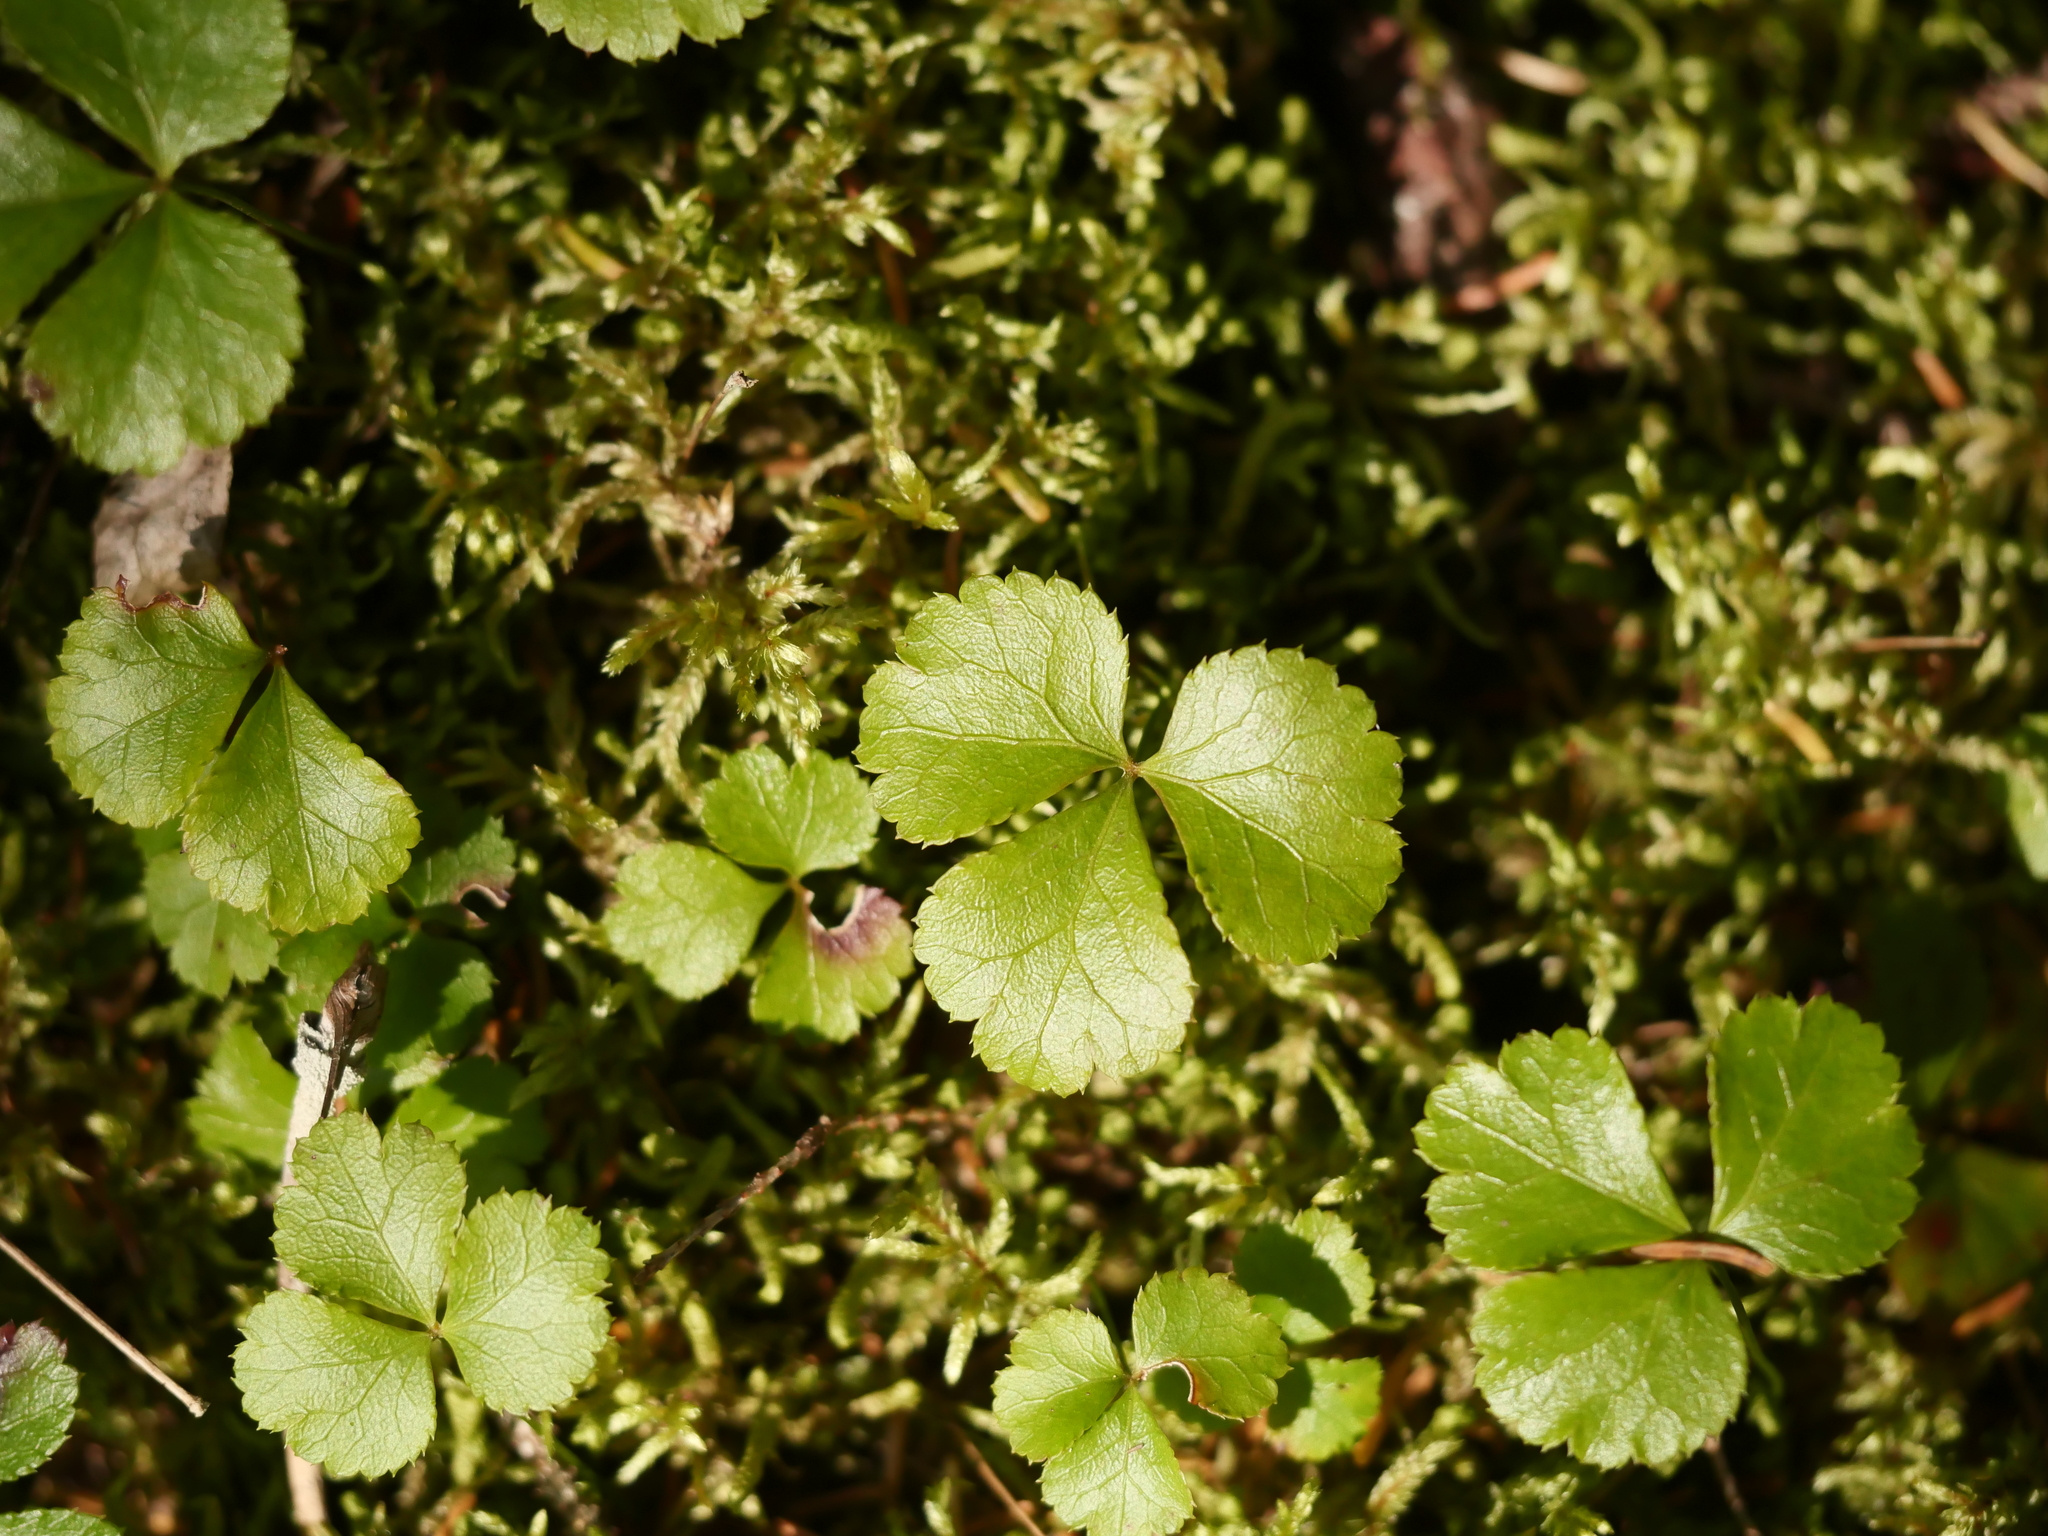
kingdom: Plantae
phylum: Tracheophyta
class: Magnoliopsida
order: Ranunculales
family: Ranunculaceae
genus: Coptis
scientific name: Coptis trifolia
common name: Canker-root
